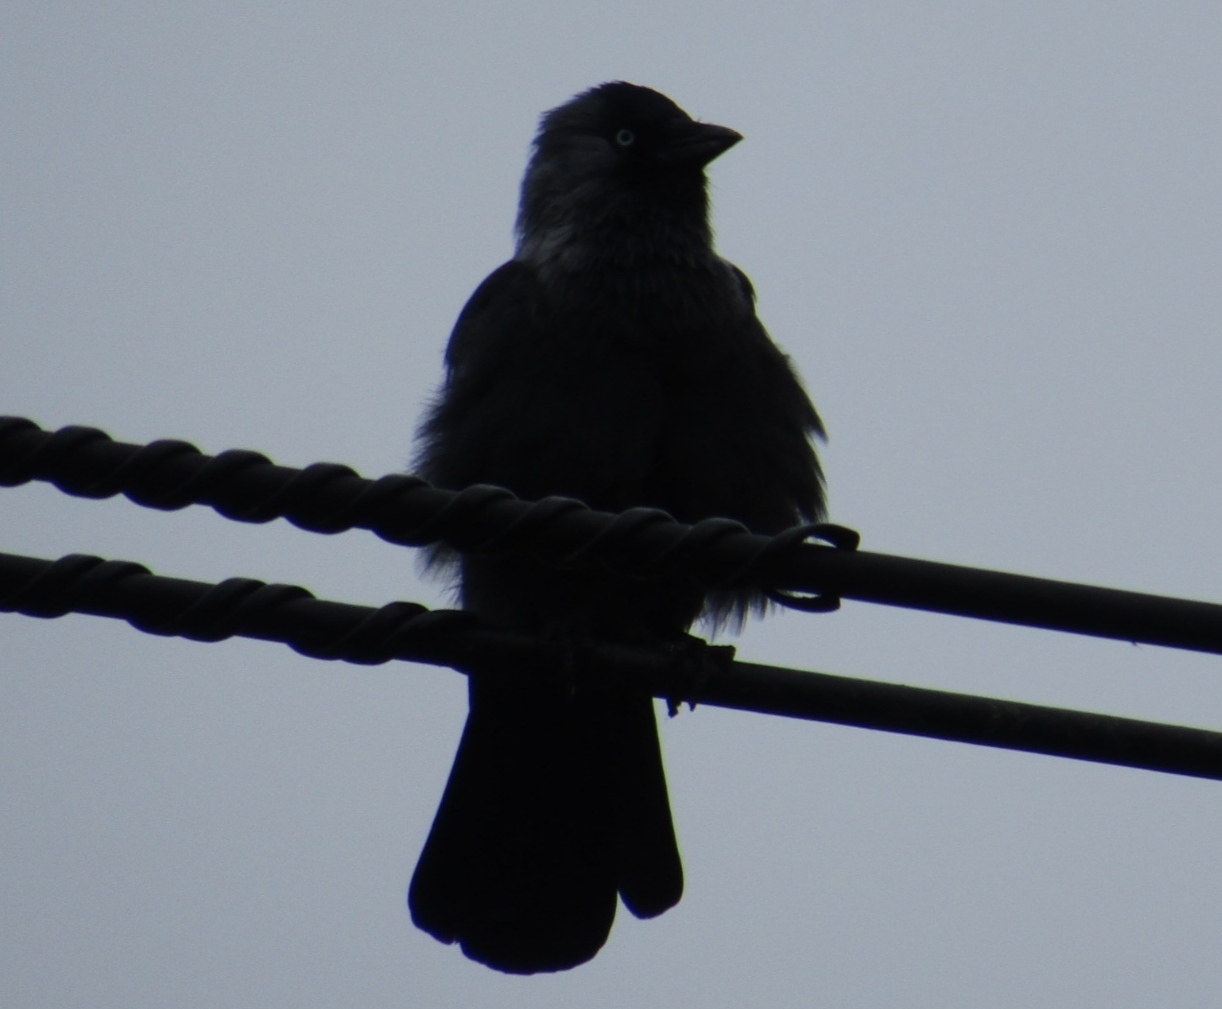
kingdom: Animalia
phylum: Chordata
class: Aves
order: Passeriformes
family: Corvidae
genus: Coloeus
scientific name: Coloeus monedula
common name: Western jackdaw
